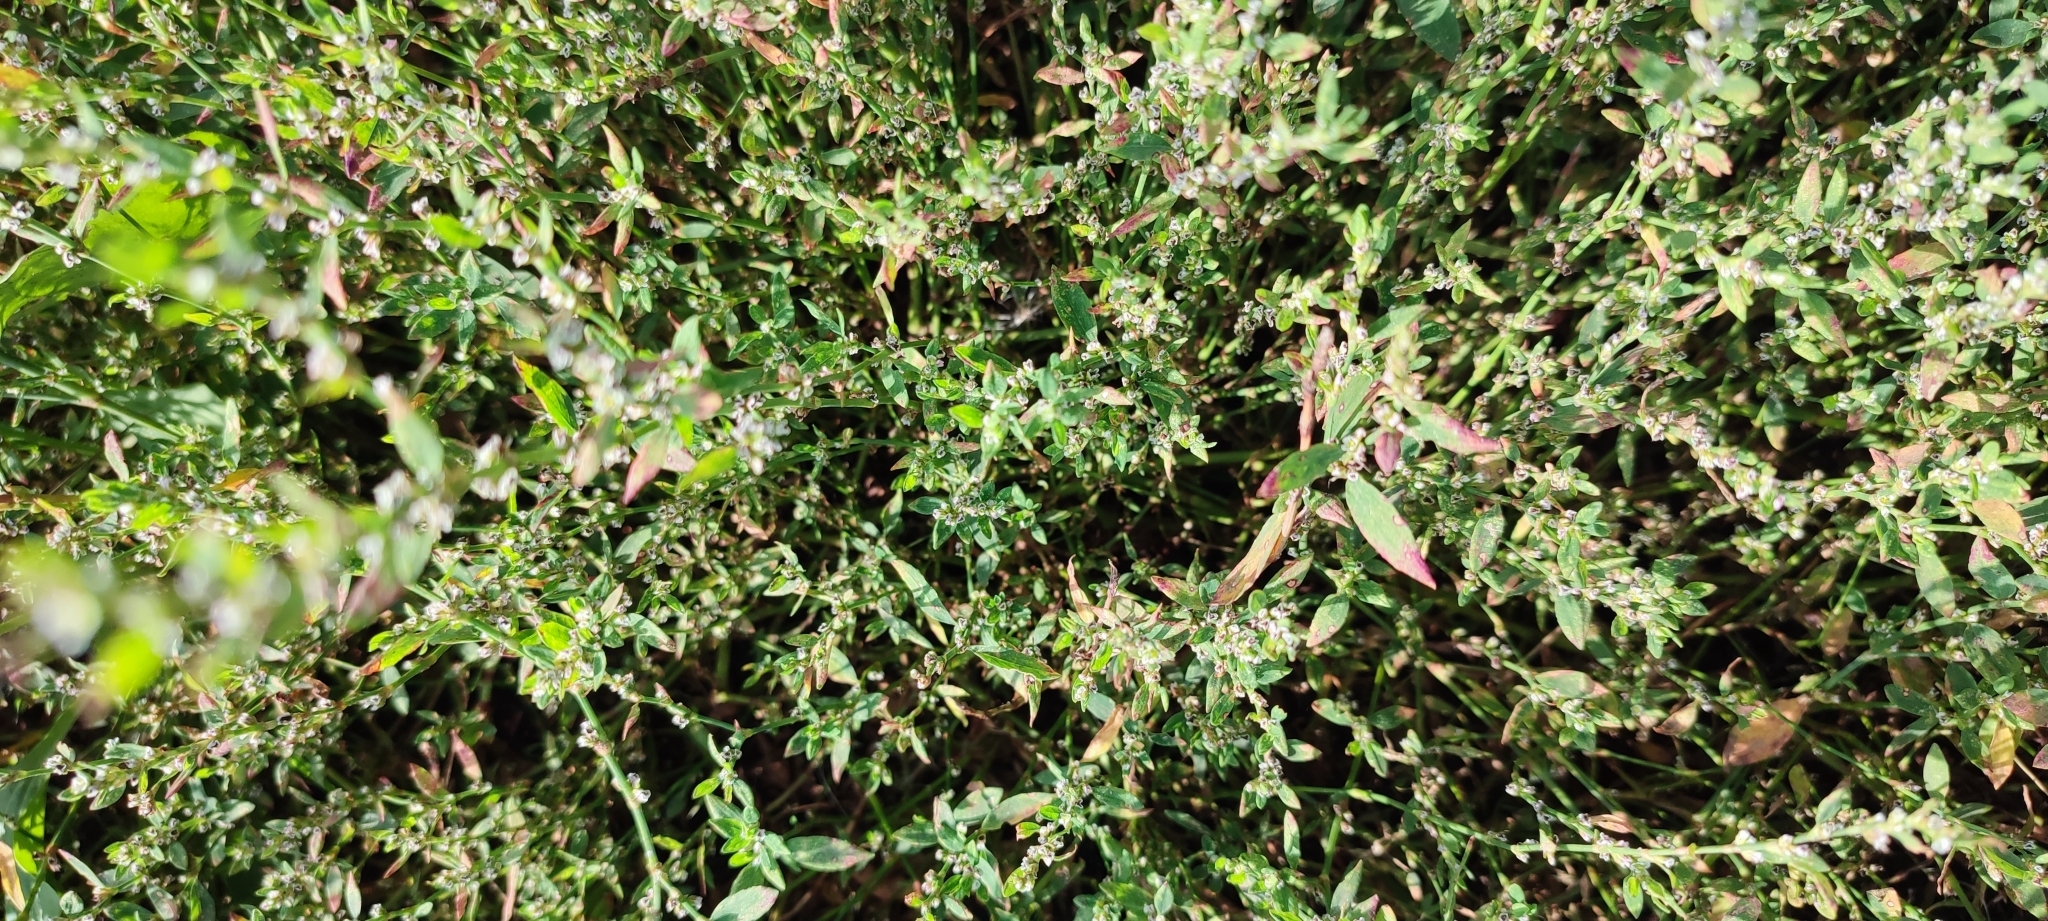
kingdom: Plantae
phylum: Tracheophyta
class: Magnoliopsida
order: Caryophyllales
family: Polygonaceae
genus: Polygonum
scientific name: Polygonum
